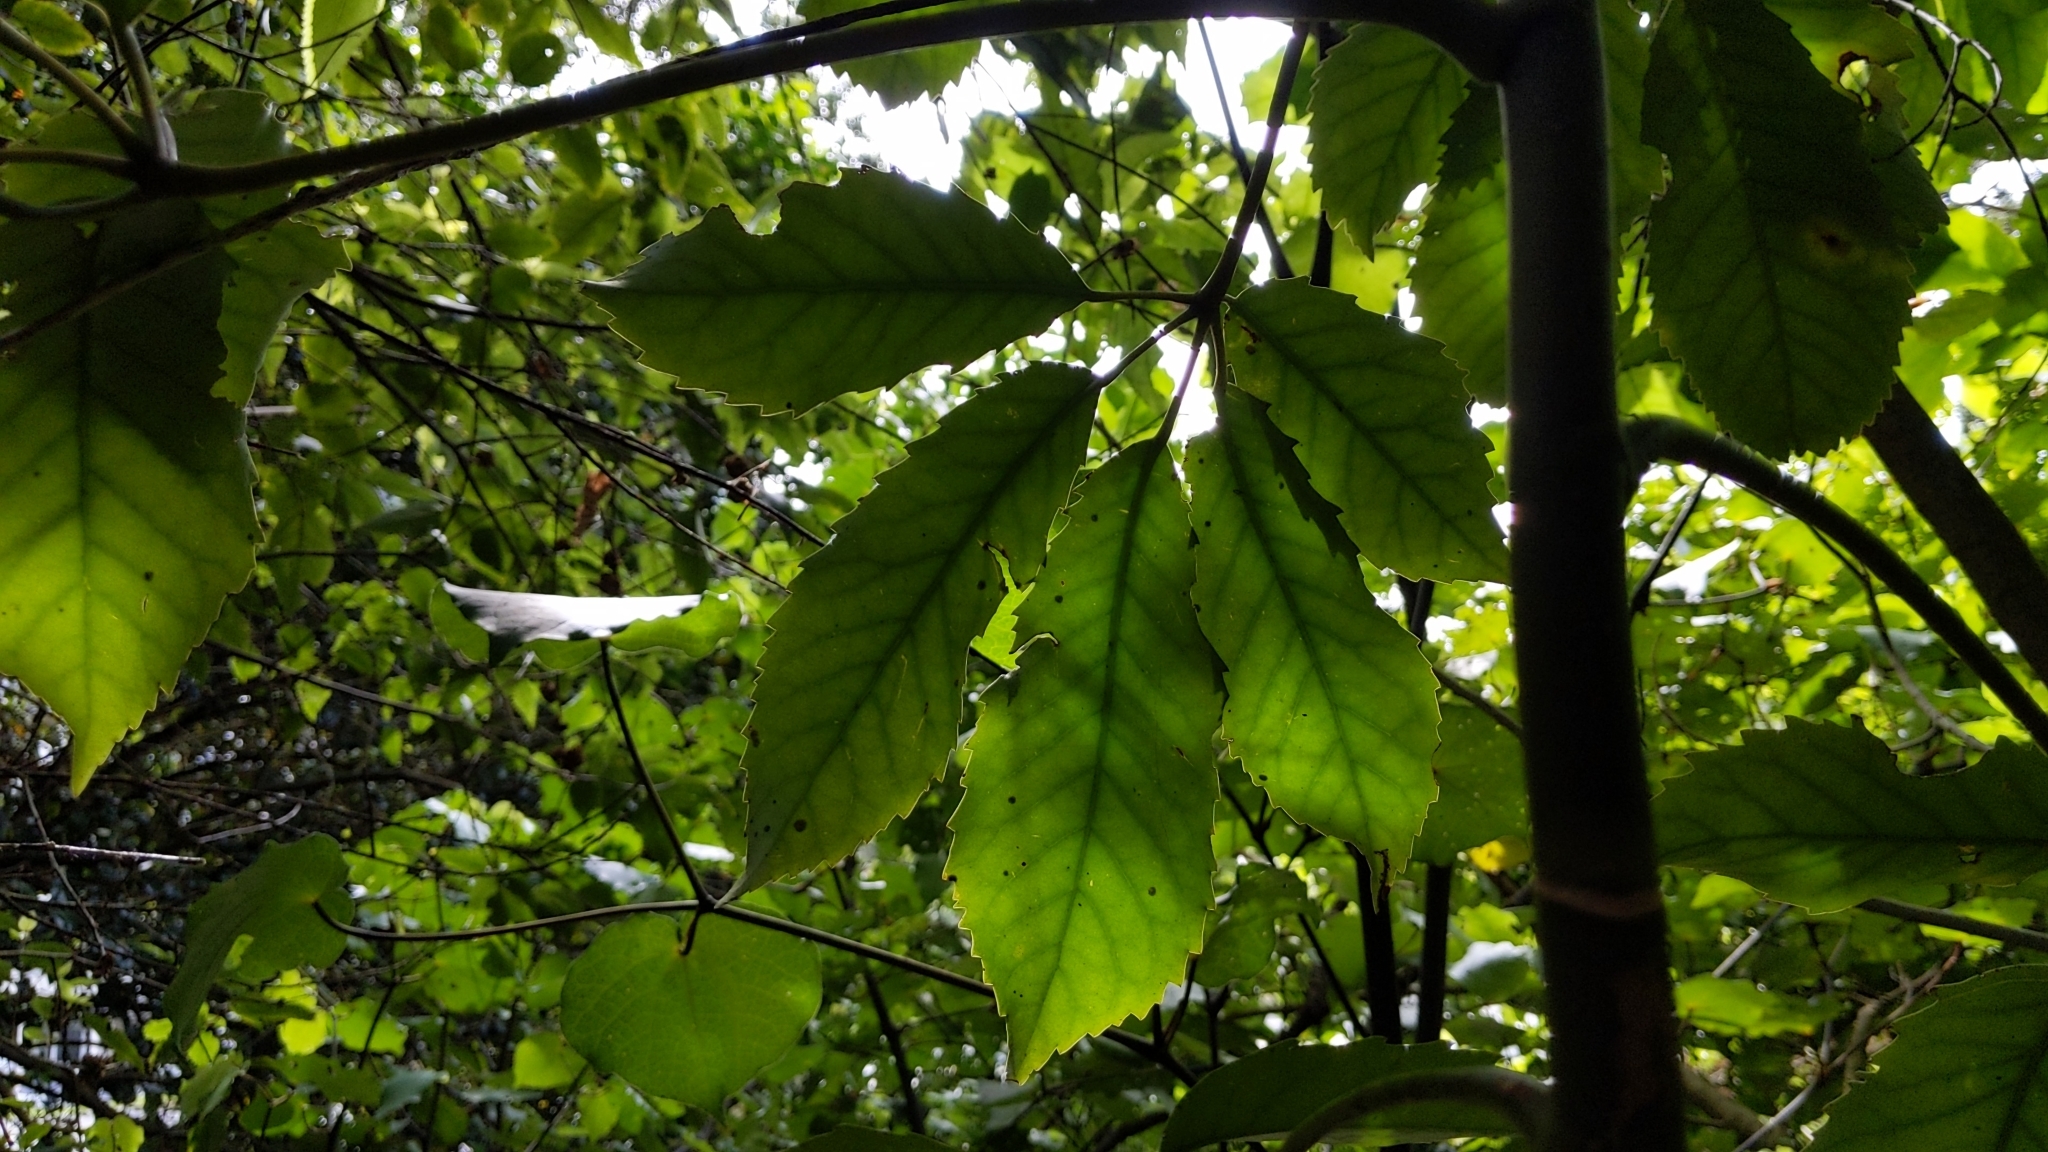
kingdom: Plantae
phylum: Tracheophyta
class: Magnoliopsida
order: Apiales
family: Araliaceae
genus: Neopanax
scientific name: Neopanax arboreus
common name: Five-fingers
